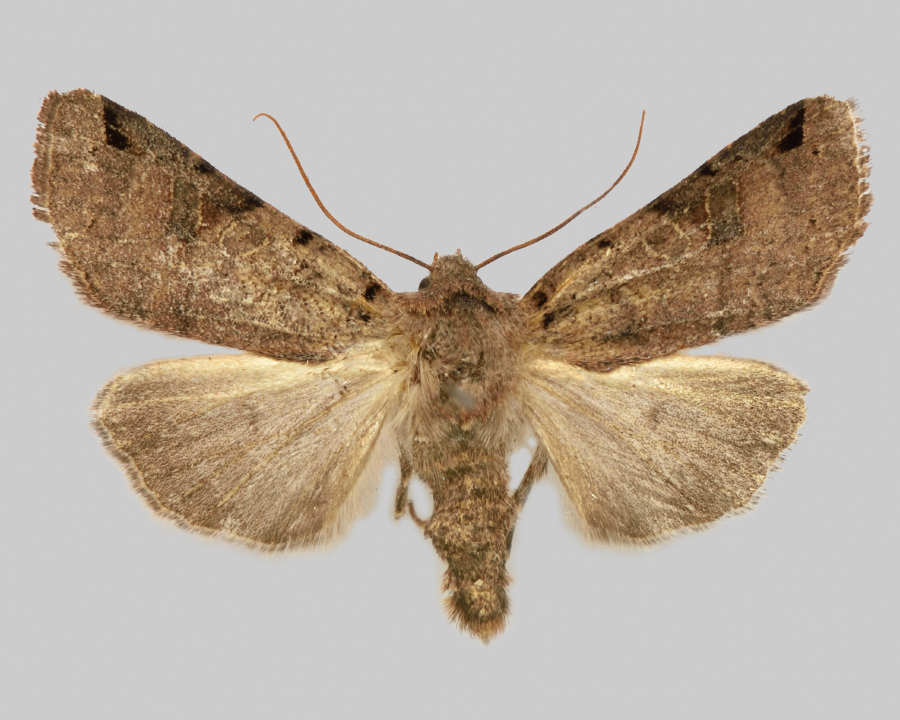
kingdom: Animalia
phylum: Arthropoda
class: Insecta
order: Lepidoptera
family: Noctuidae
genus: Agrochola
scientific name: Agrochola litura
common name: Brown-spot pinion
